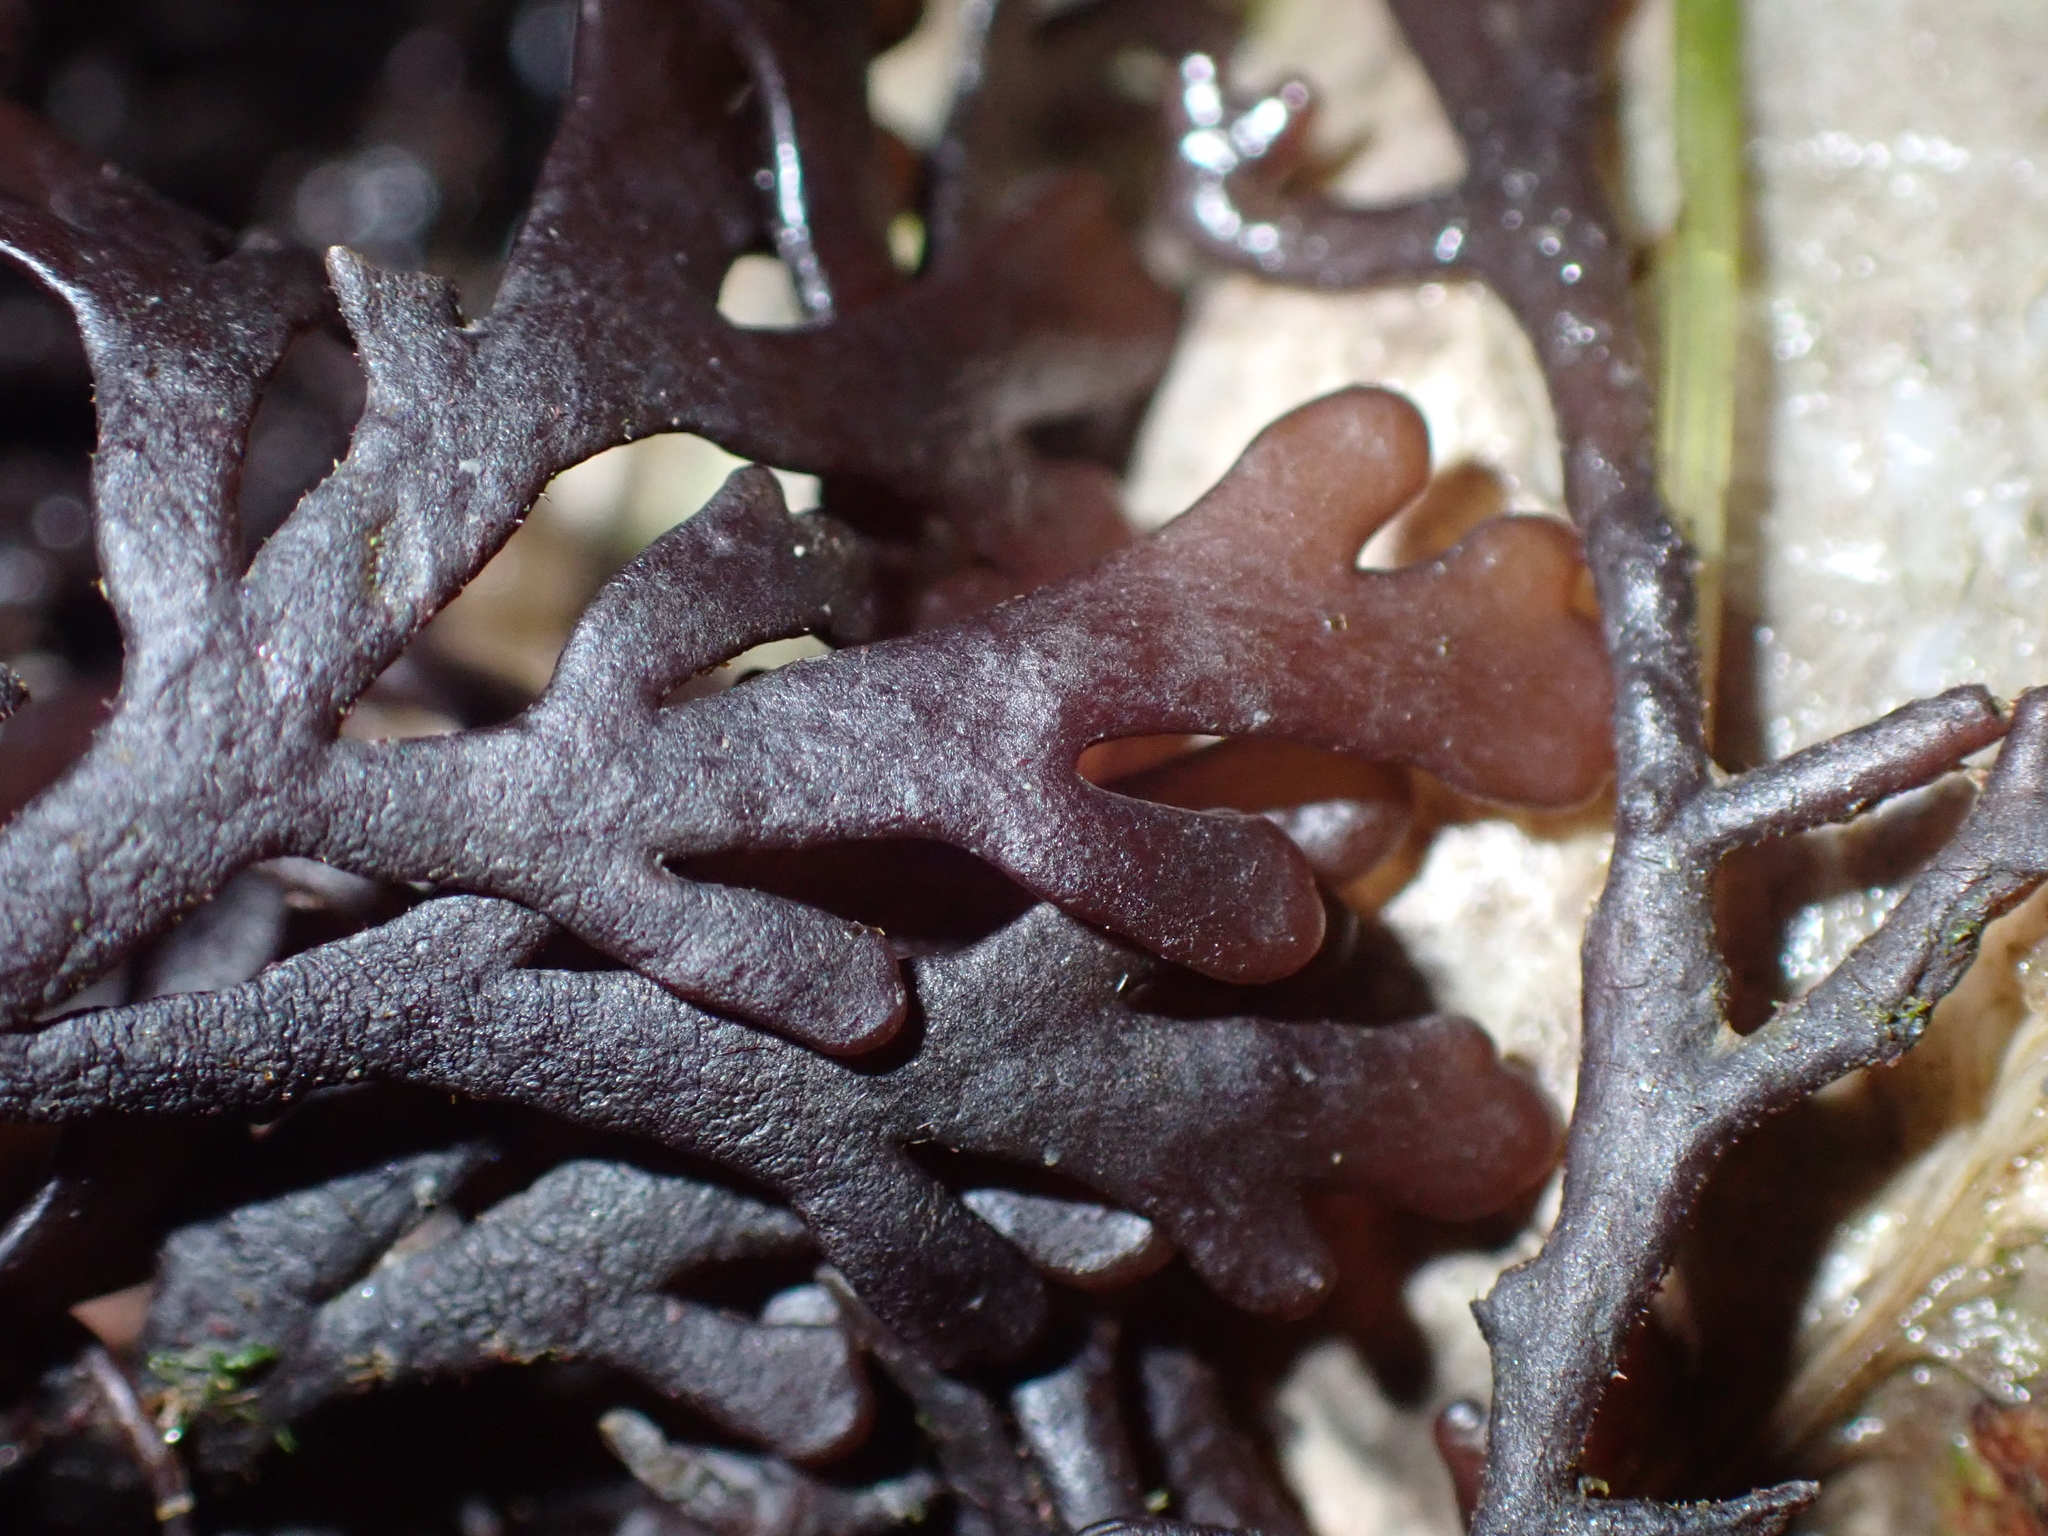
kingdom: Plantae
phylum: Rhodophyta
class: Florideophyceae
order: Ceramiales
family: Rhodomelaceae
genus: Laurencia
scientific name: Laurencia Osmundea pinnatifida
